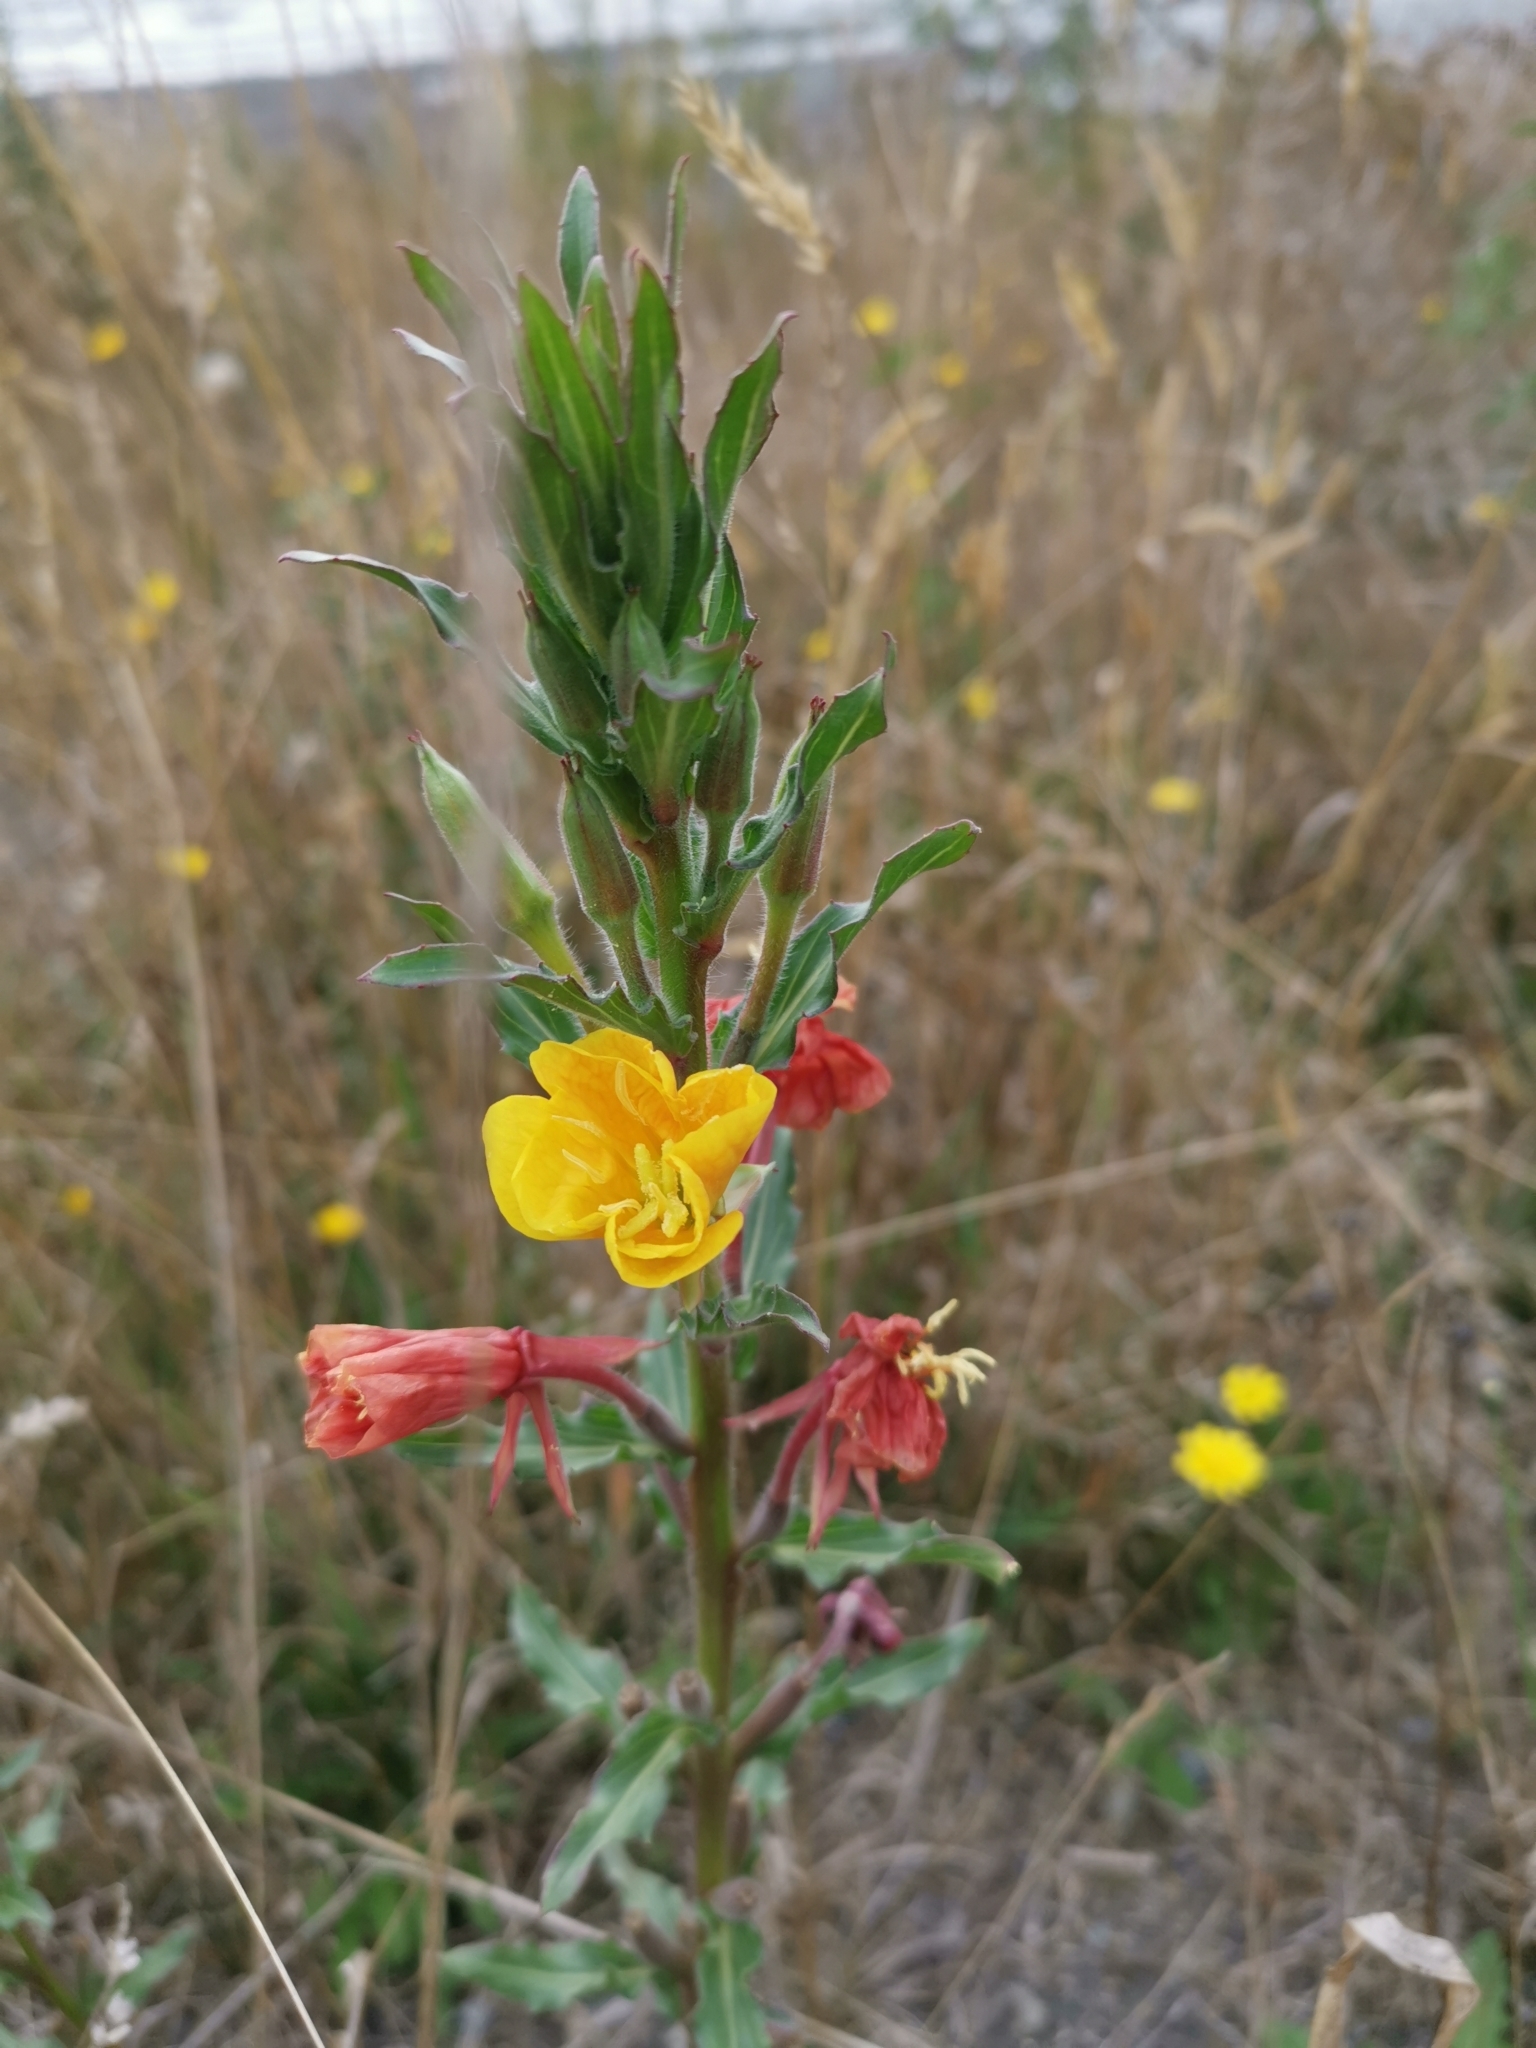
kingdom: Plantae
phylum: Tracheophyta
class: Magnoliopsida
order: Myrtales
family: Onagraceae
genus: Oenothera
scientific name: Oenothera stricta
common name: Fragrant evening-primrose
